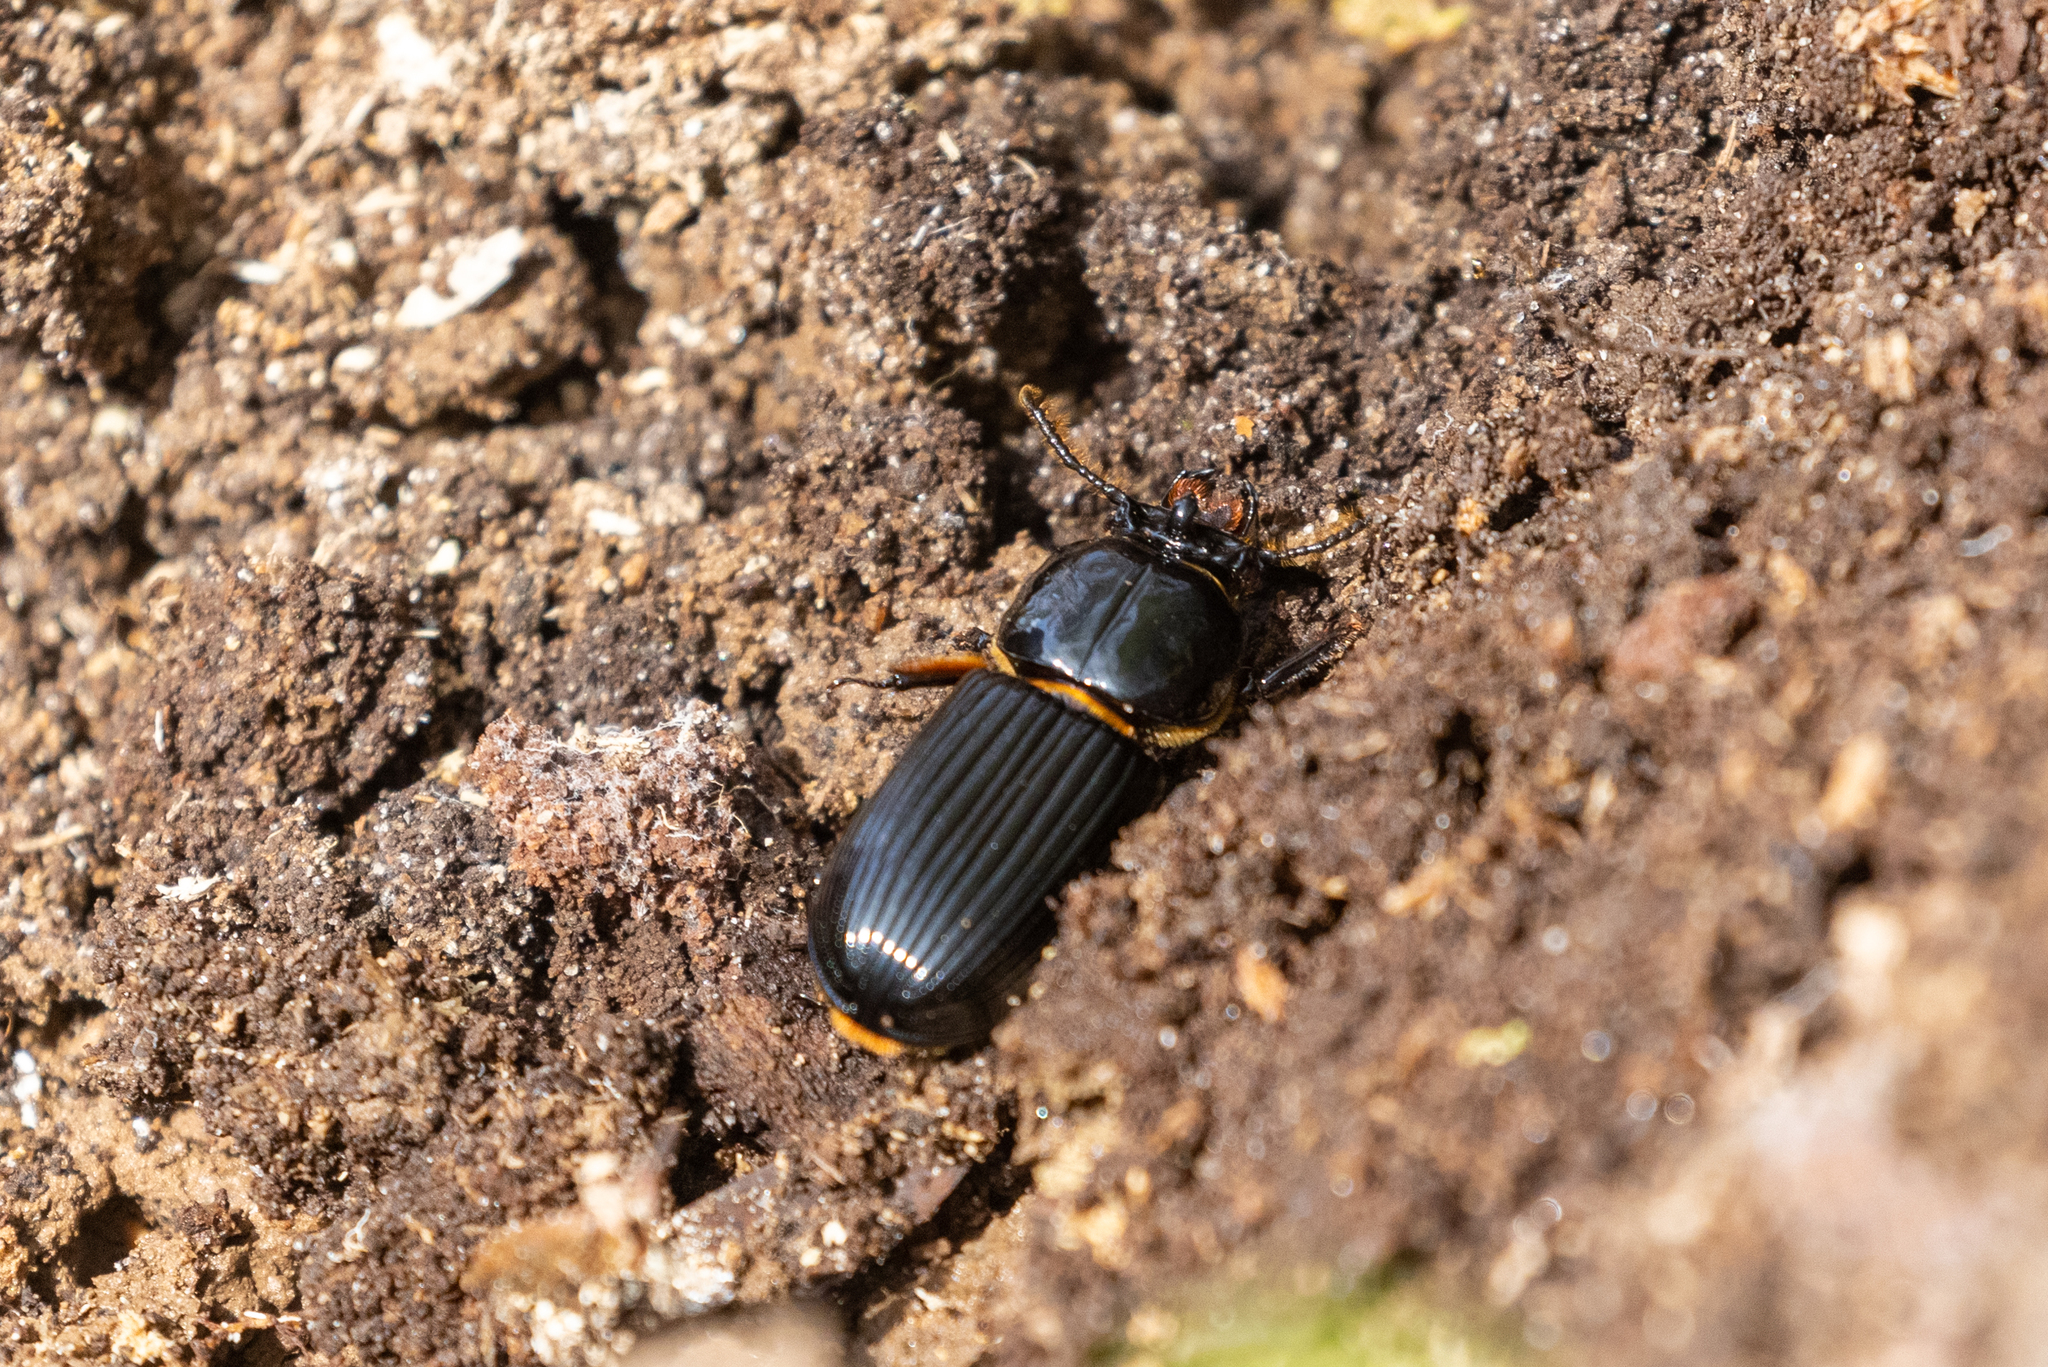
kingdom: Animalia
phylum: Arthropoda
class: Insecta
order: Coleoptera
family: Passalidae
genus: Odontotaenius
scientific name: Odontotaenius disjunctus
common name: Patent leather beetle
